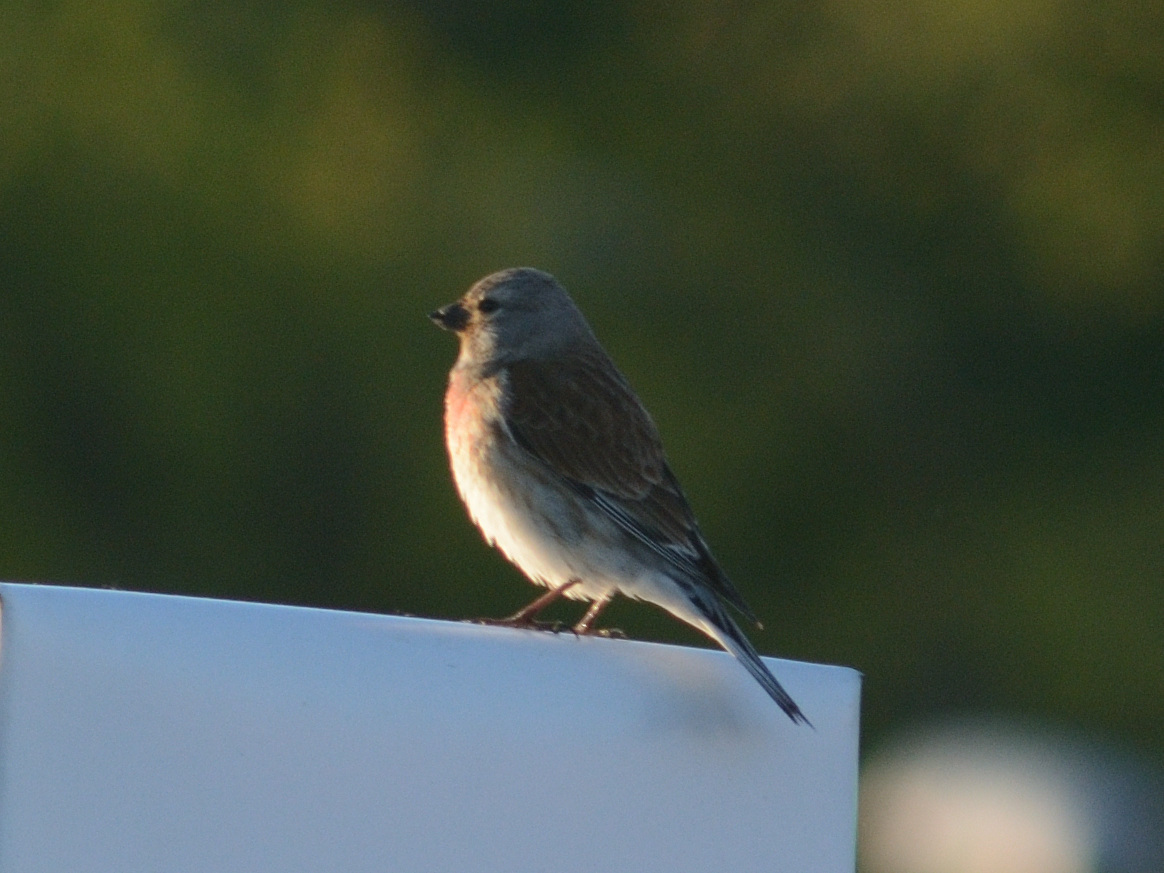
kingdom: Animalia
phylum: Chordata
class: Aves
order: Passeriformes
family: Fringillidae
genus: Linaria
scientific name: Linaria cannabina
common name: Common linnet
